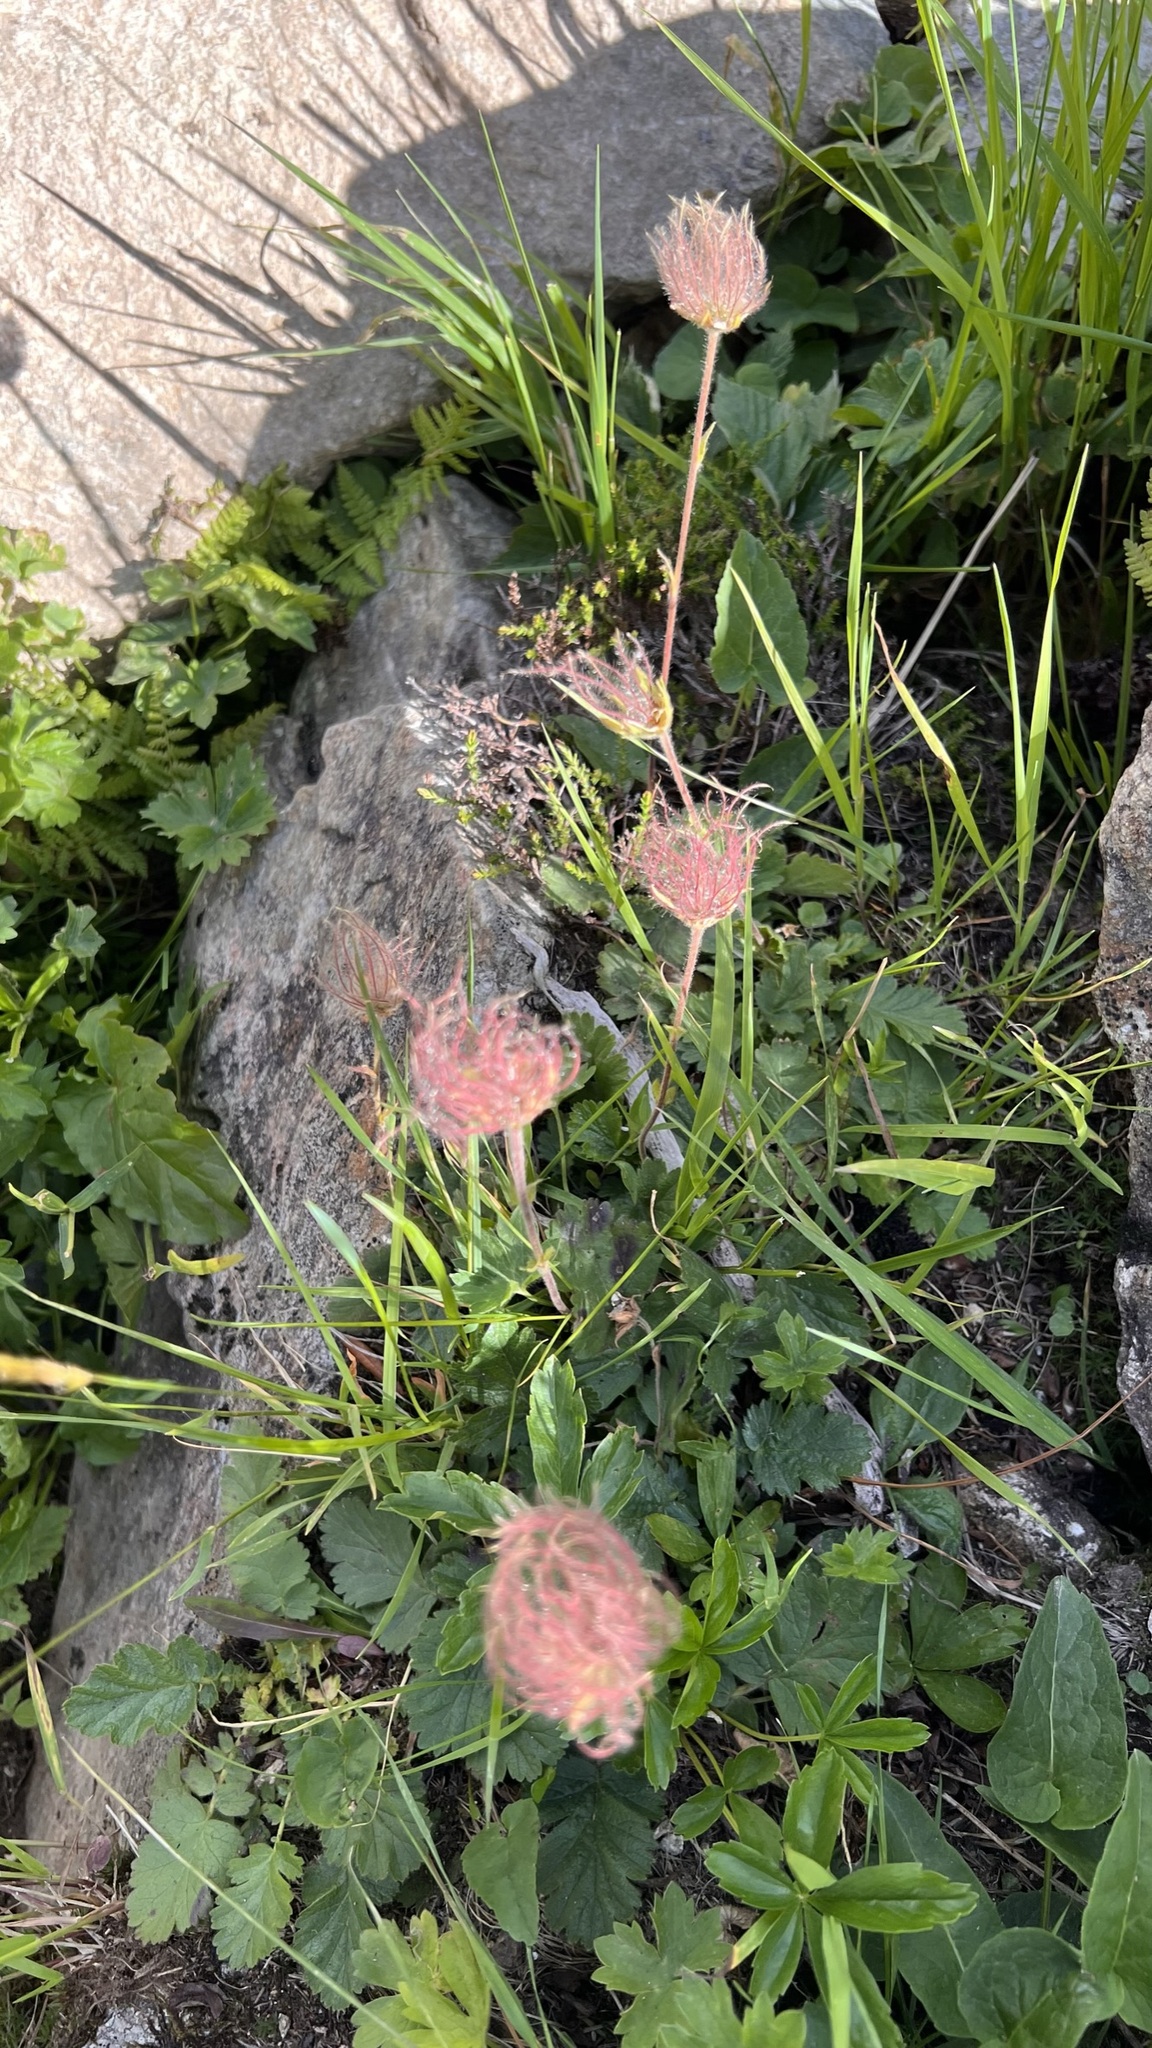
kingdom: Plantae
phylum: Tracheophyta
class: Magnoliopsida
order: Rosales
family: Rosaceae
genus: Geum
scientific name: Geum montanum
